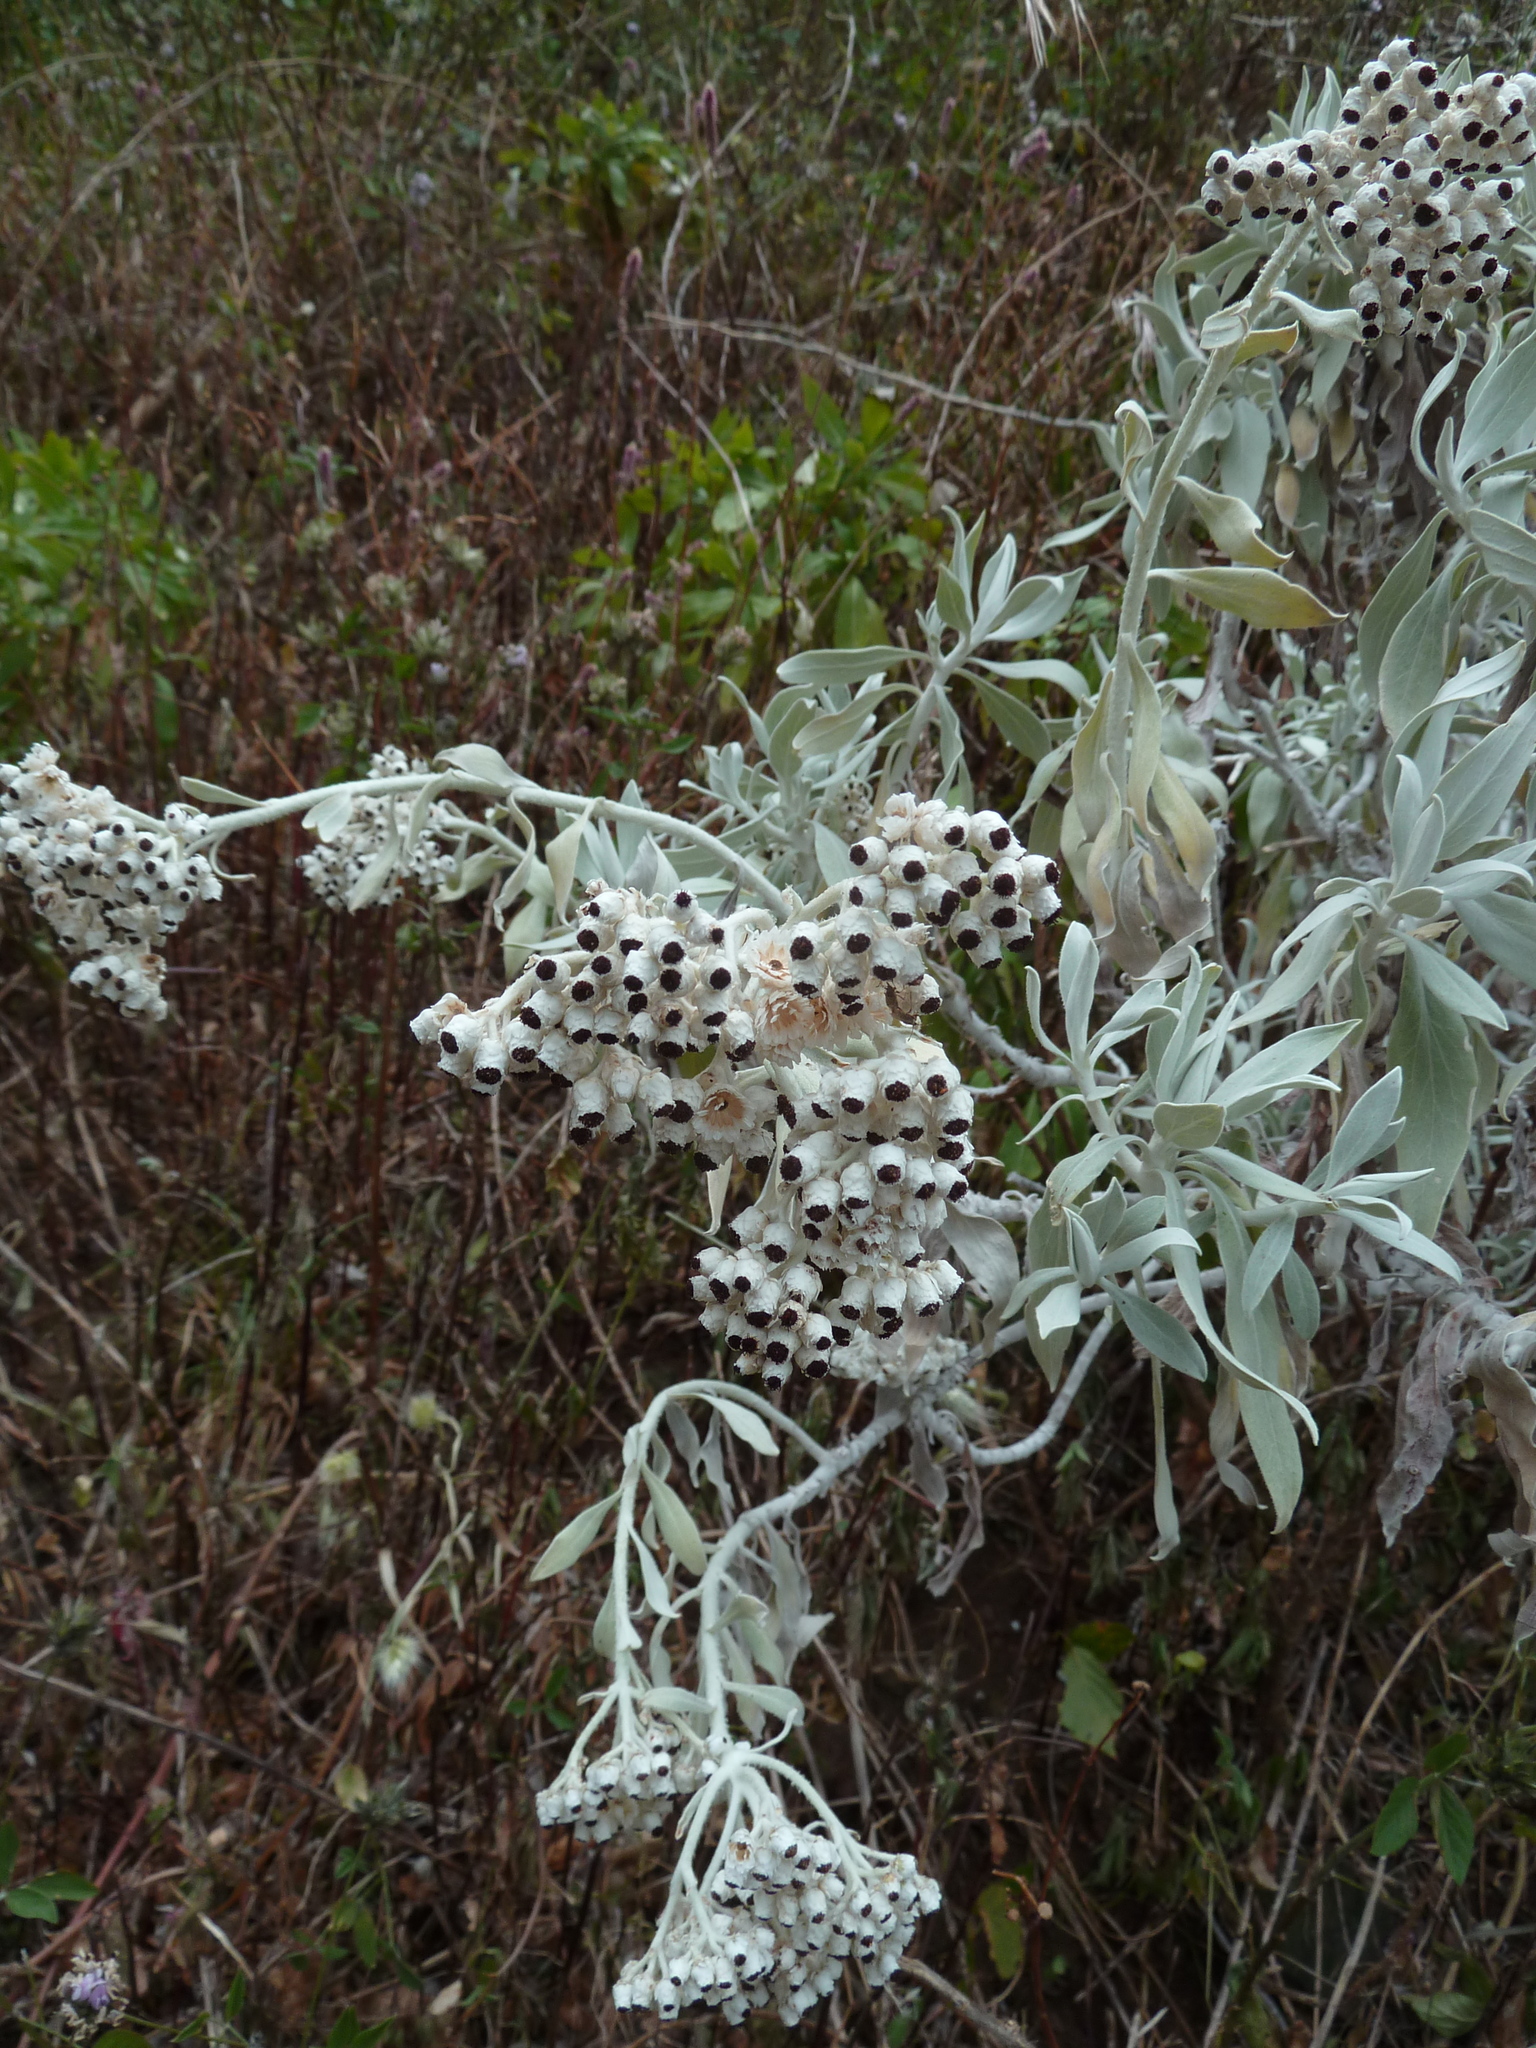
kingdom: Plantae
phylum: Tracheophyta
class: Magnoliopsida
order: Asterales
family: Asteraceae
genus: Helichrysum
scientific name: Helichrysum melaleucum
